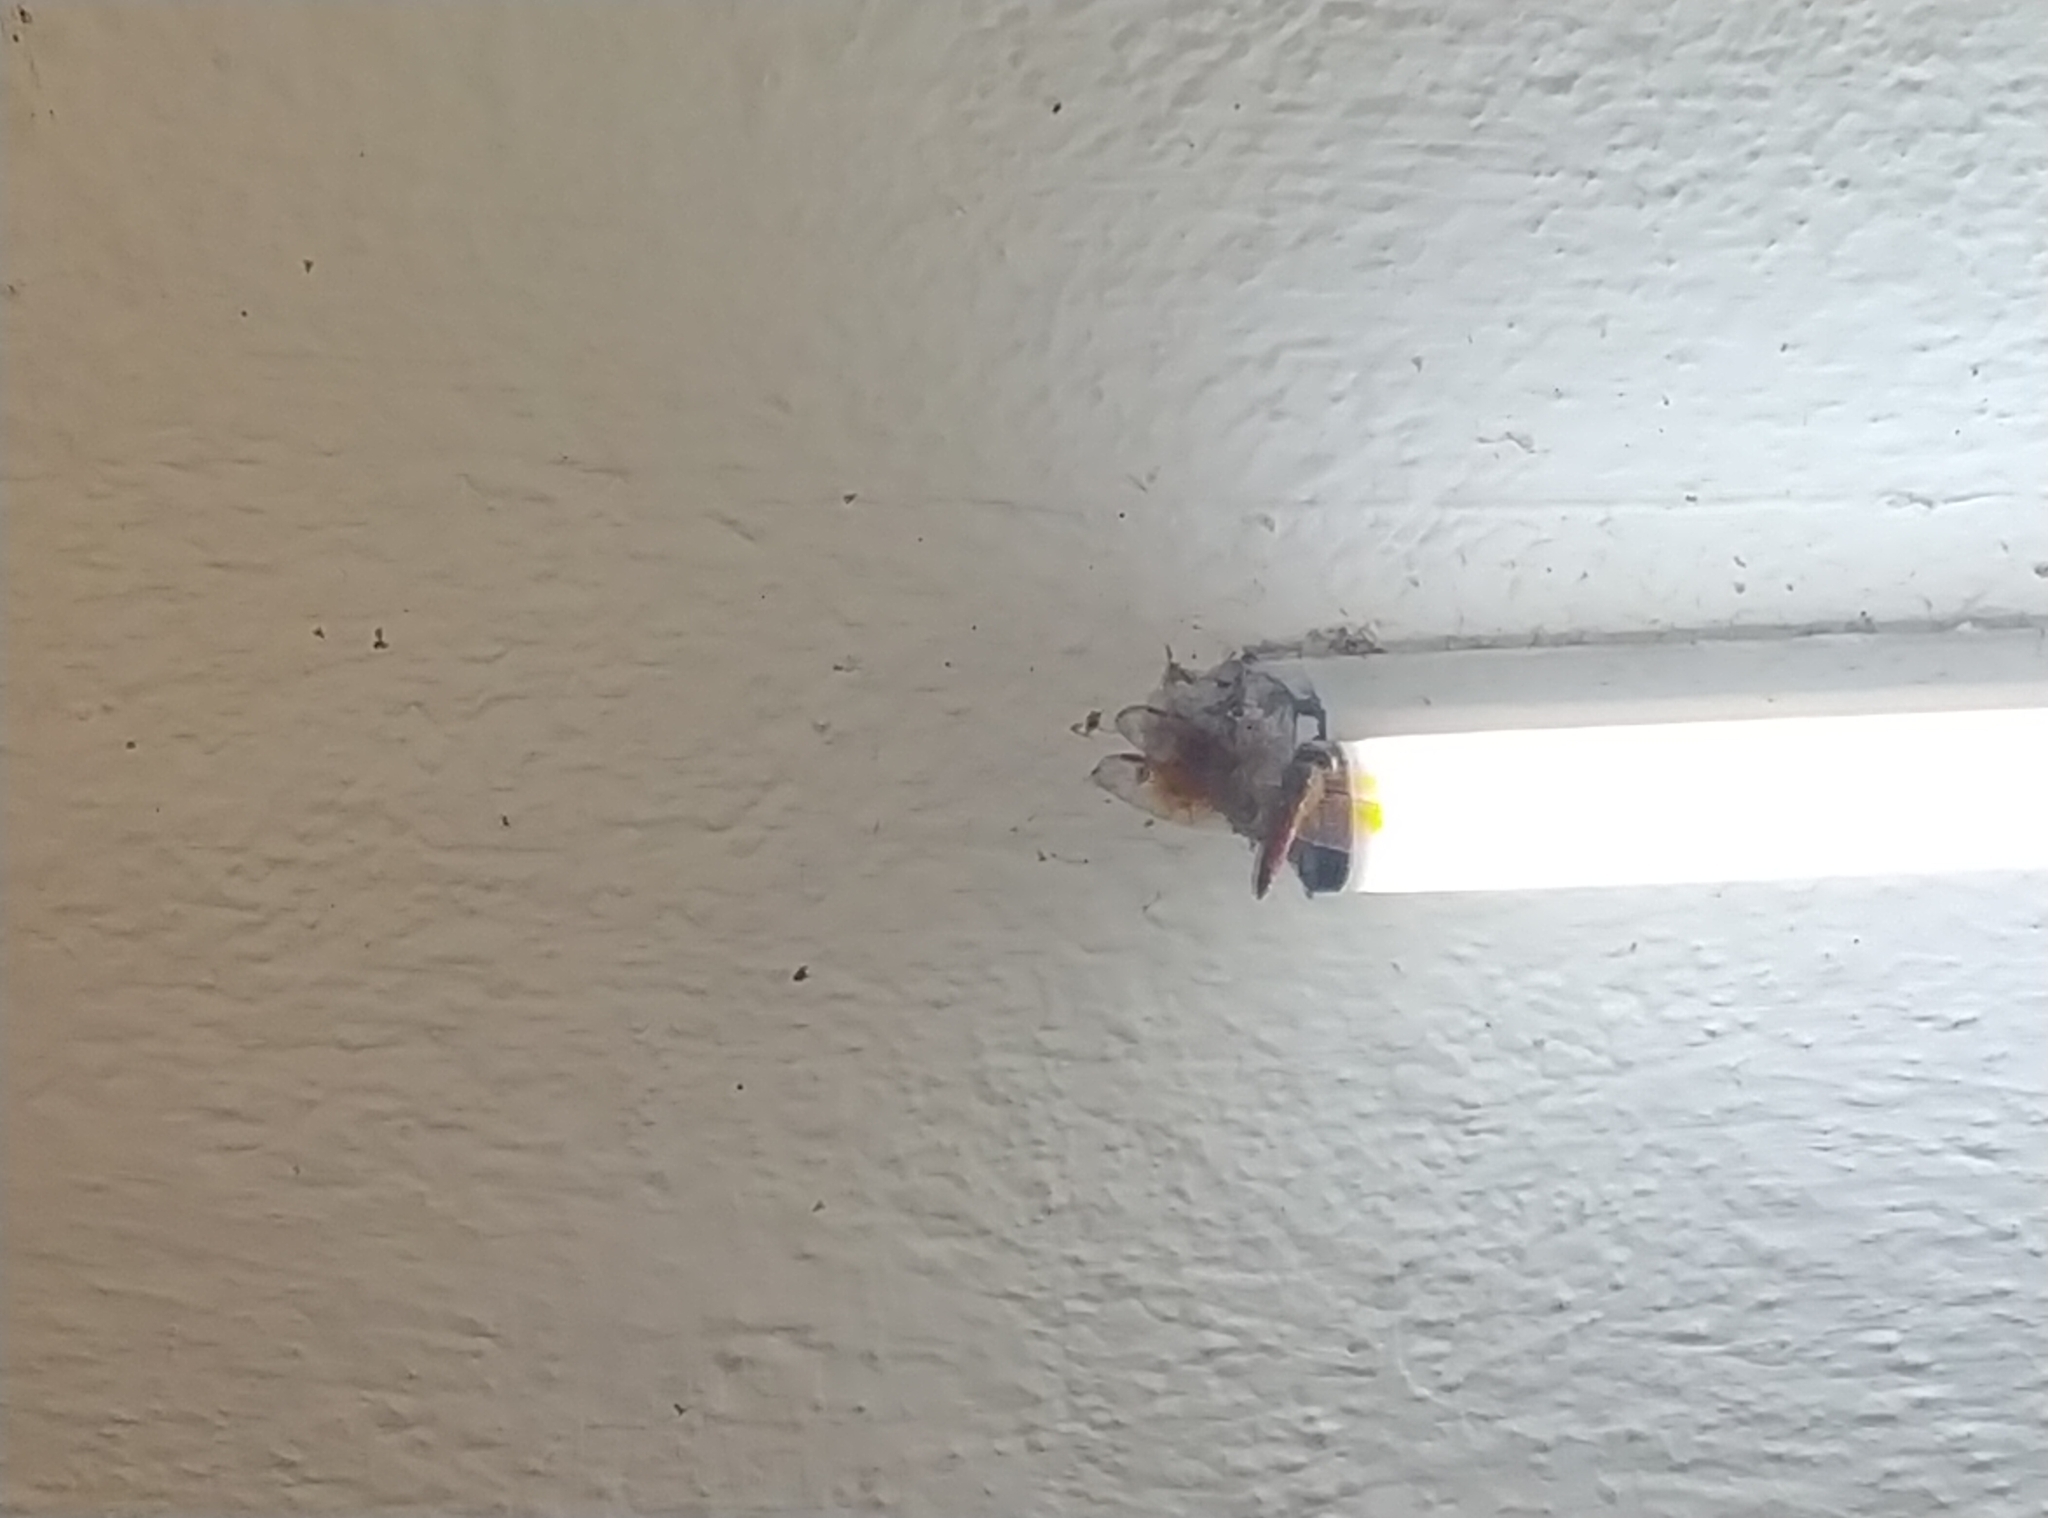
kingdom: Animalia
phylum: Arthropoda
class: Insecta
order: Odonata
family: Libellulidae
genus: Brachythemis
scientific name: Brachythemis contaminata
